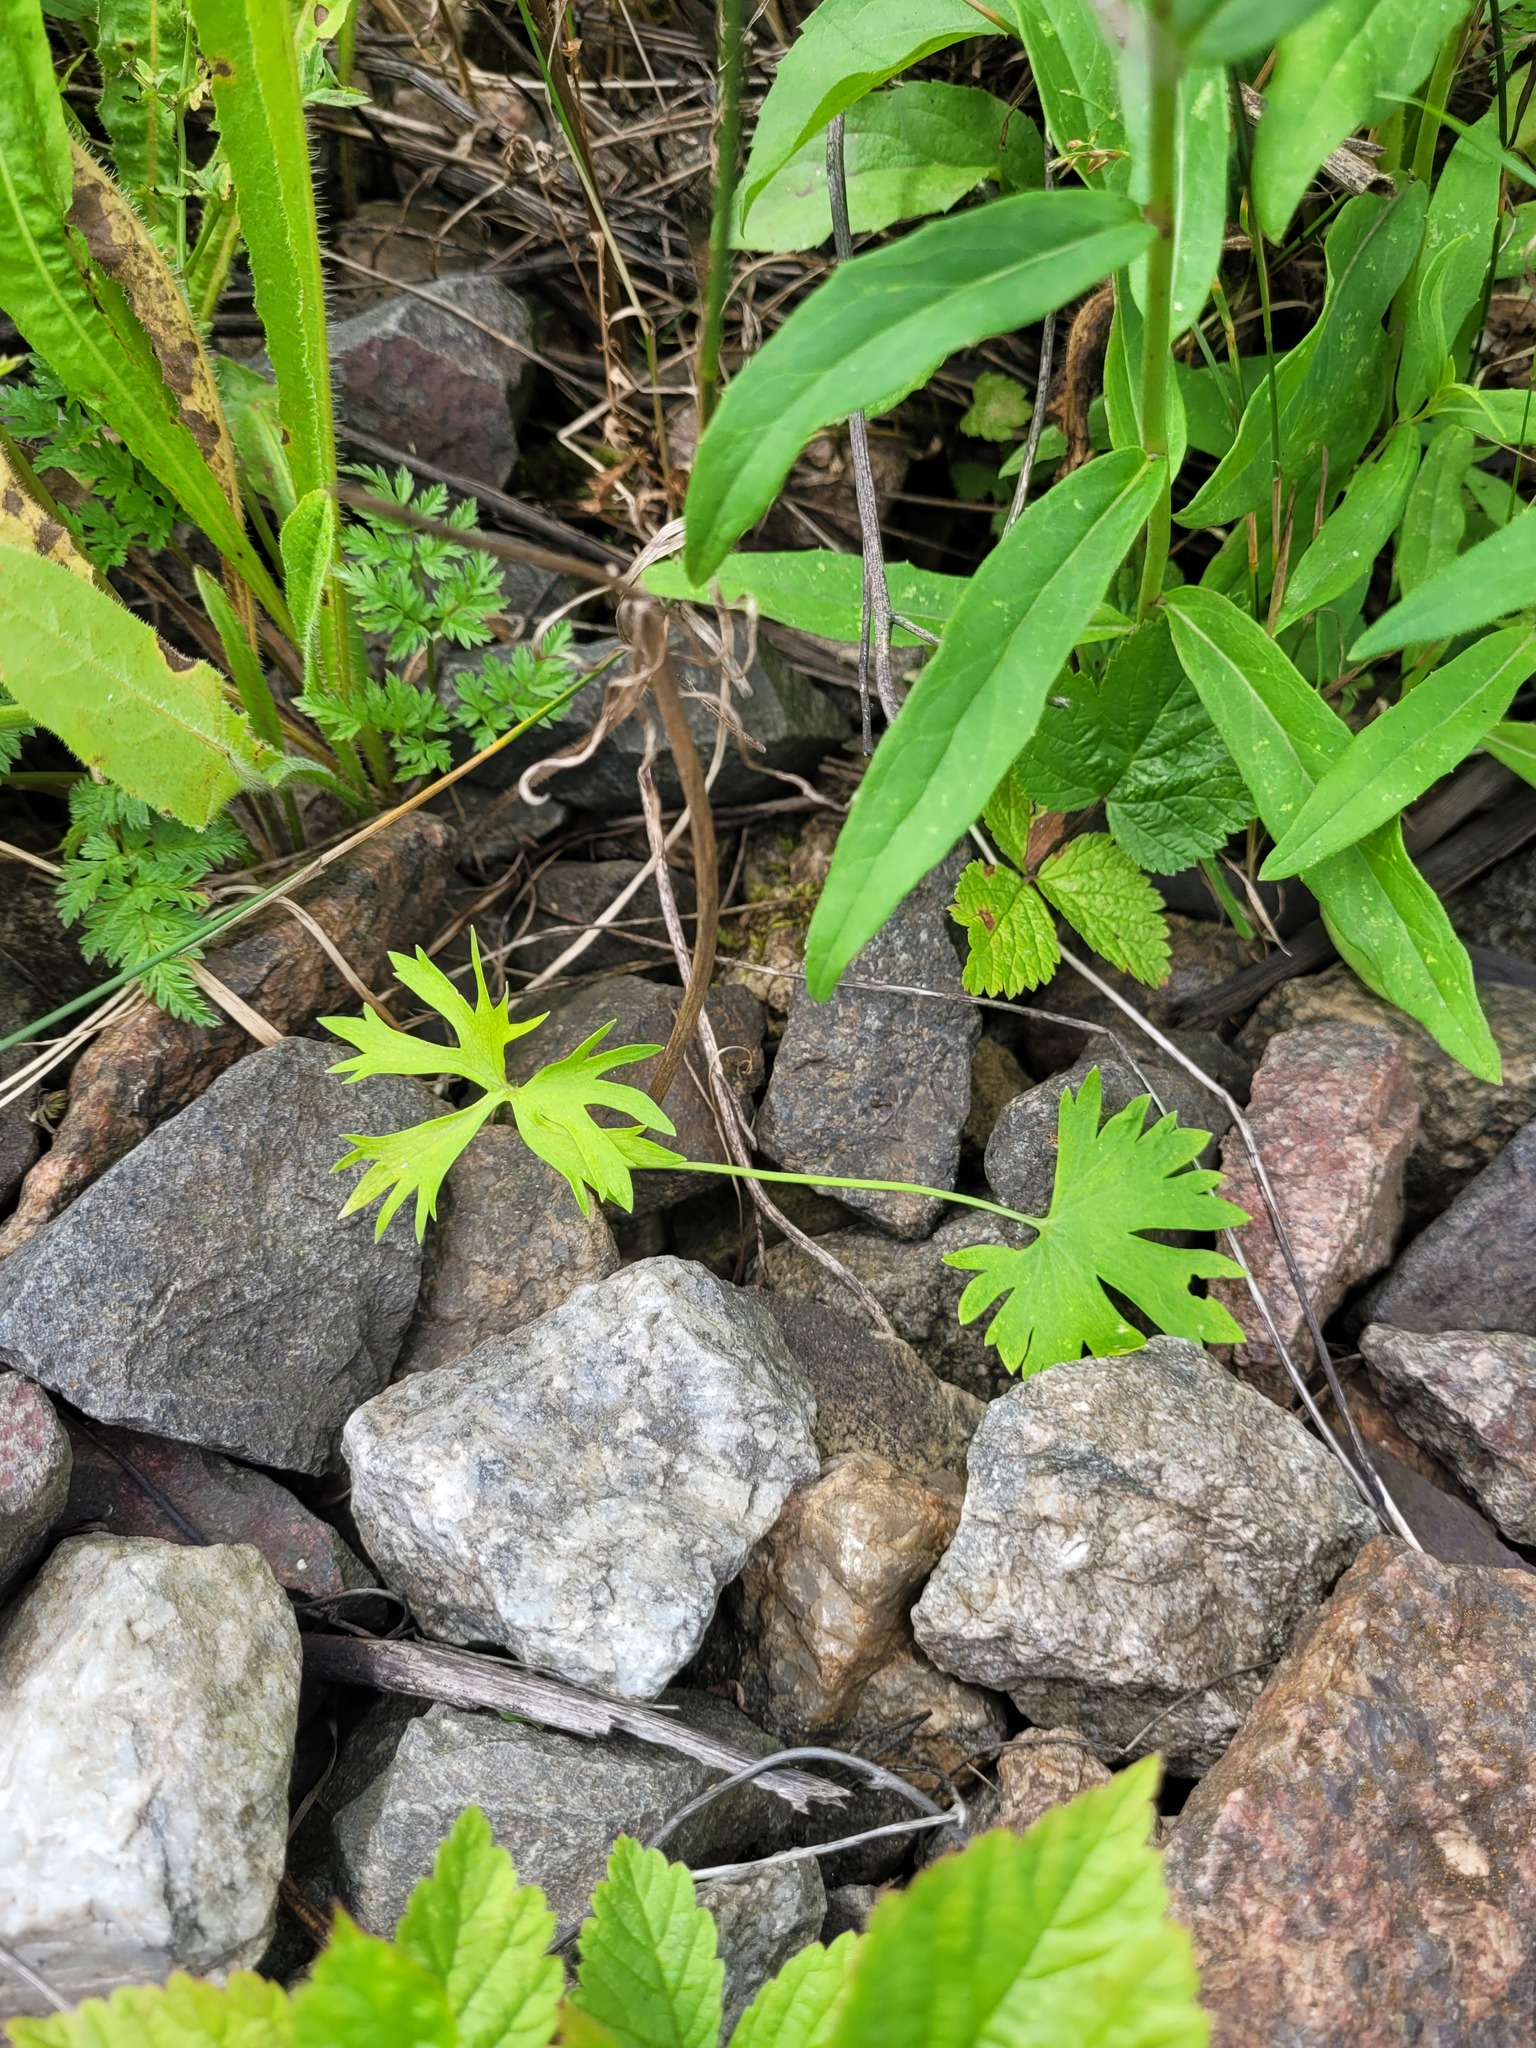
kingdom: Plantae
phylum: Tracheophyta
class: Magnoliopsida
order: Ranunculales
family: Ranunculaceae
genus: Ranunculus
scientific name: Ranunculus auricomus
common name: Goldilocks buttercup
